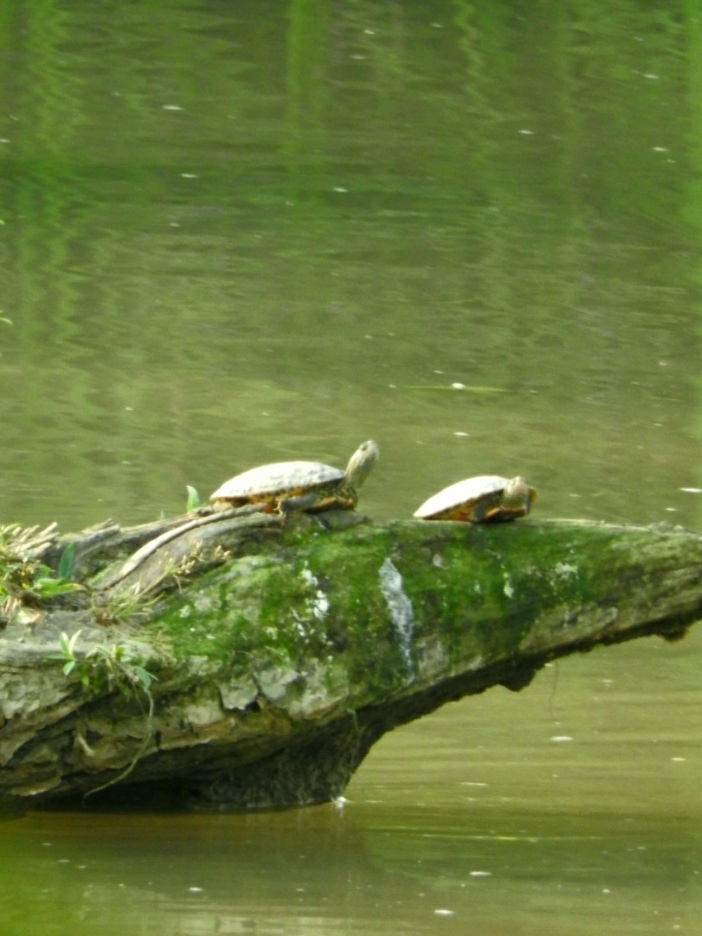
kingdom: Animalia
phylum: Chordata
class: Testudines
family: Geoemydidae
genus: Mauremys
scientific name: Mauremys caspica
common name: Caspian turtle
